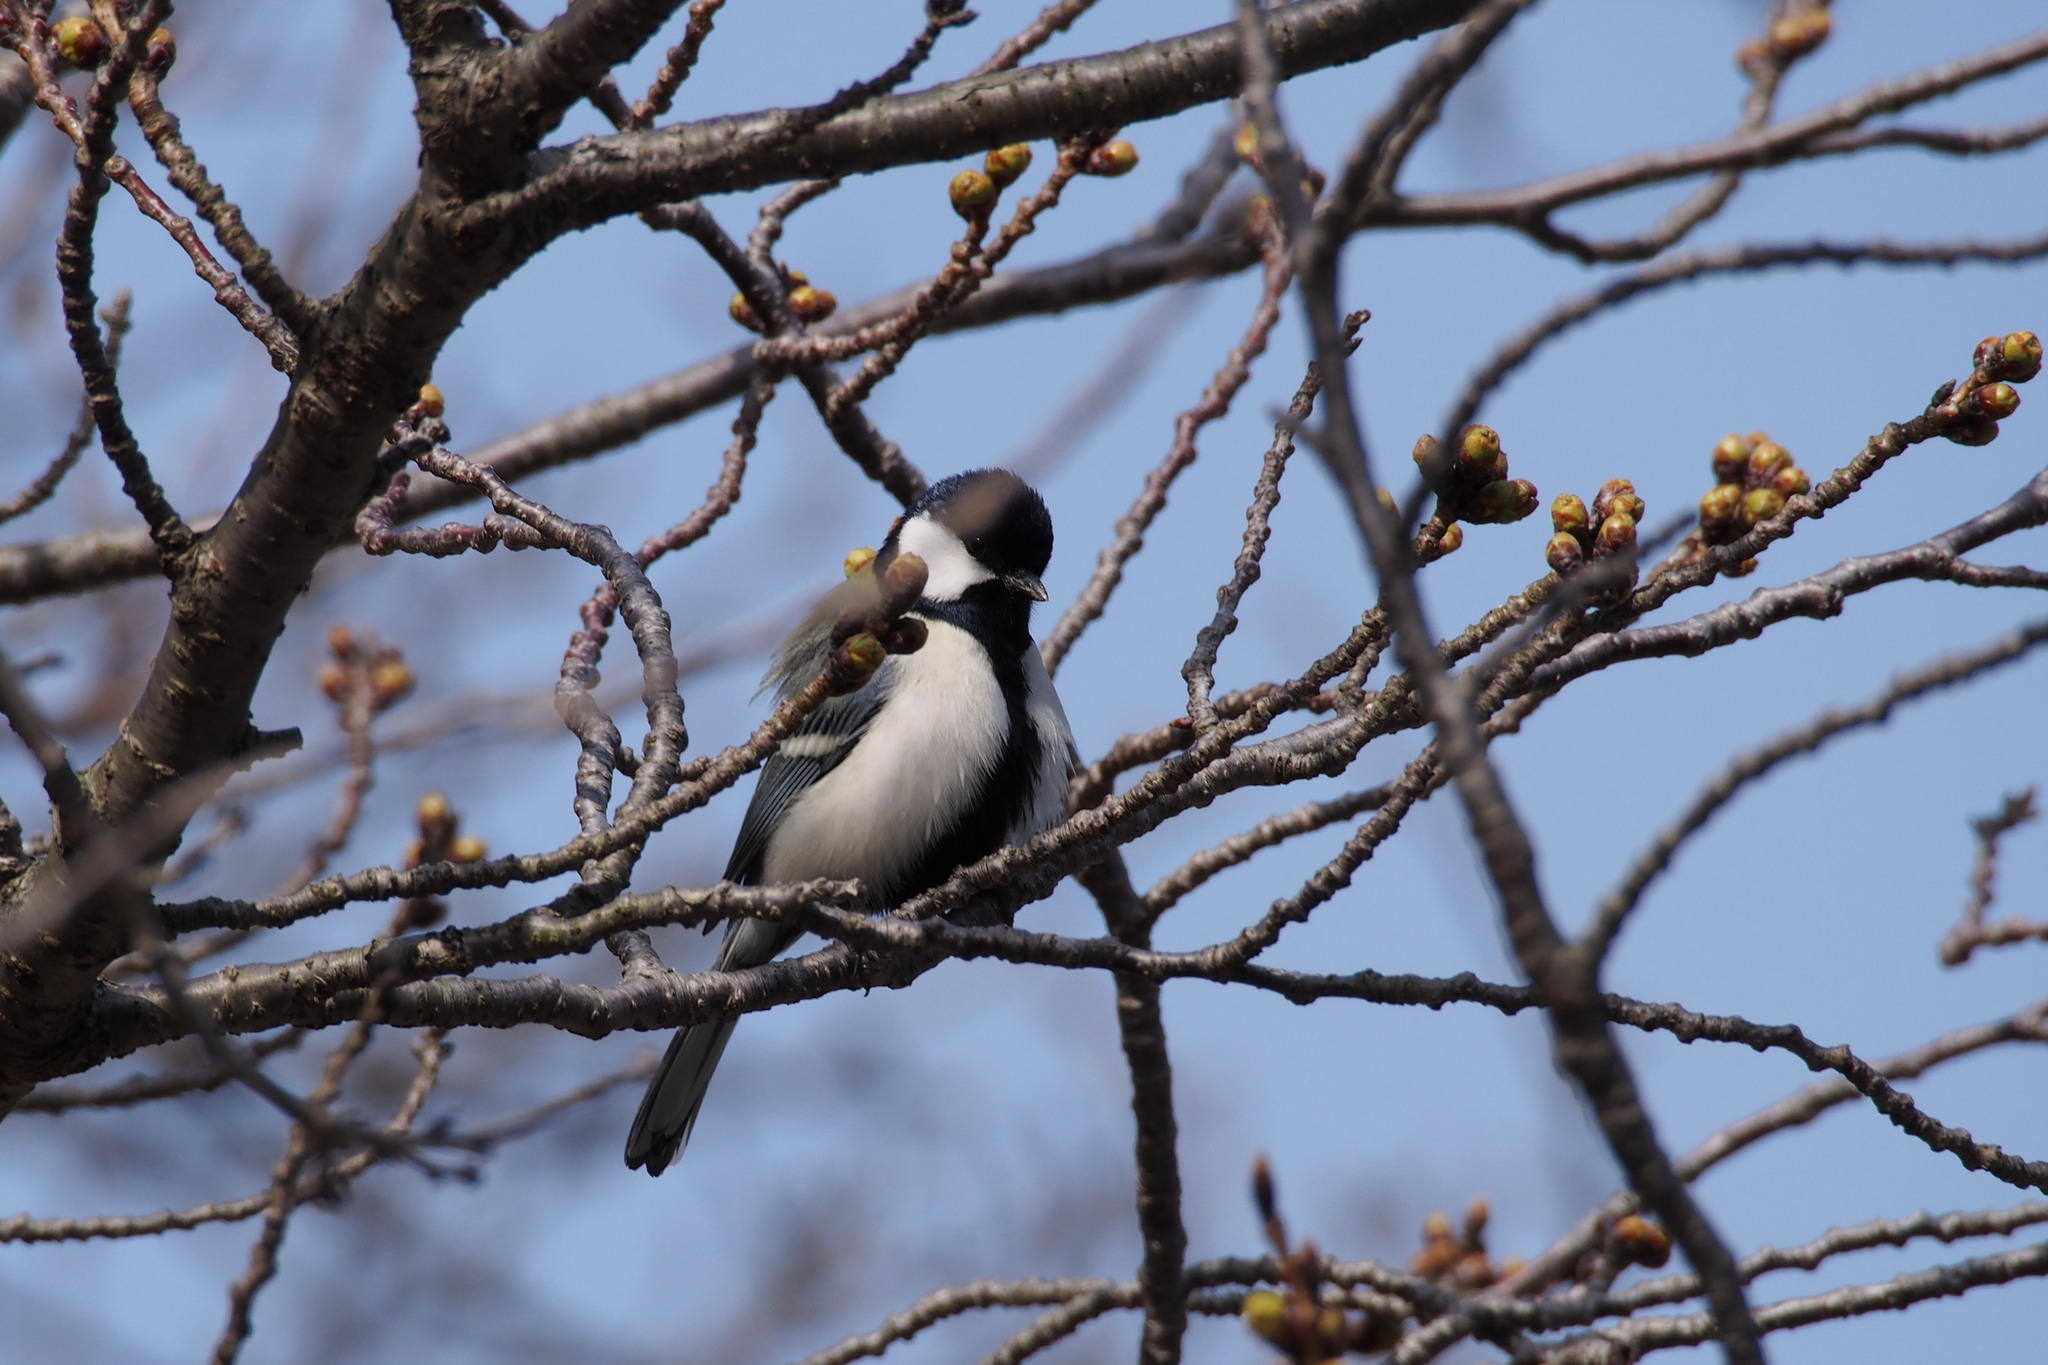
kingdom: Animalia
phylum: Chordata
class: Aves
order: Passeriformes
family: Paridae
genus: Parus
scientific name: Parus minor
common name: Japanese tit
